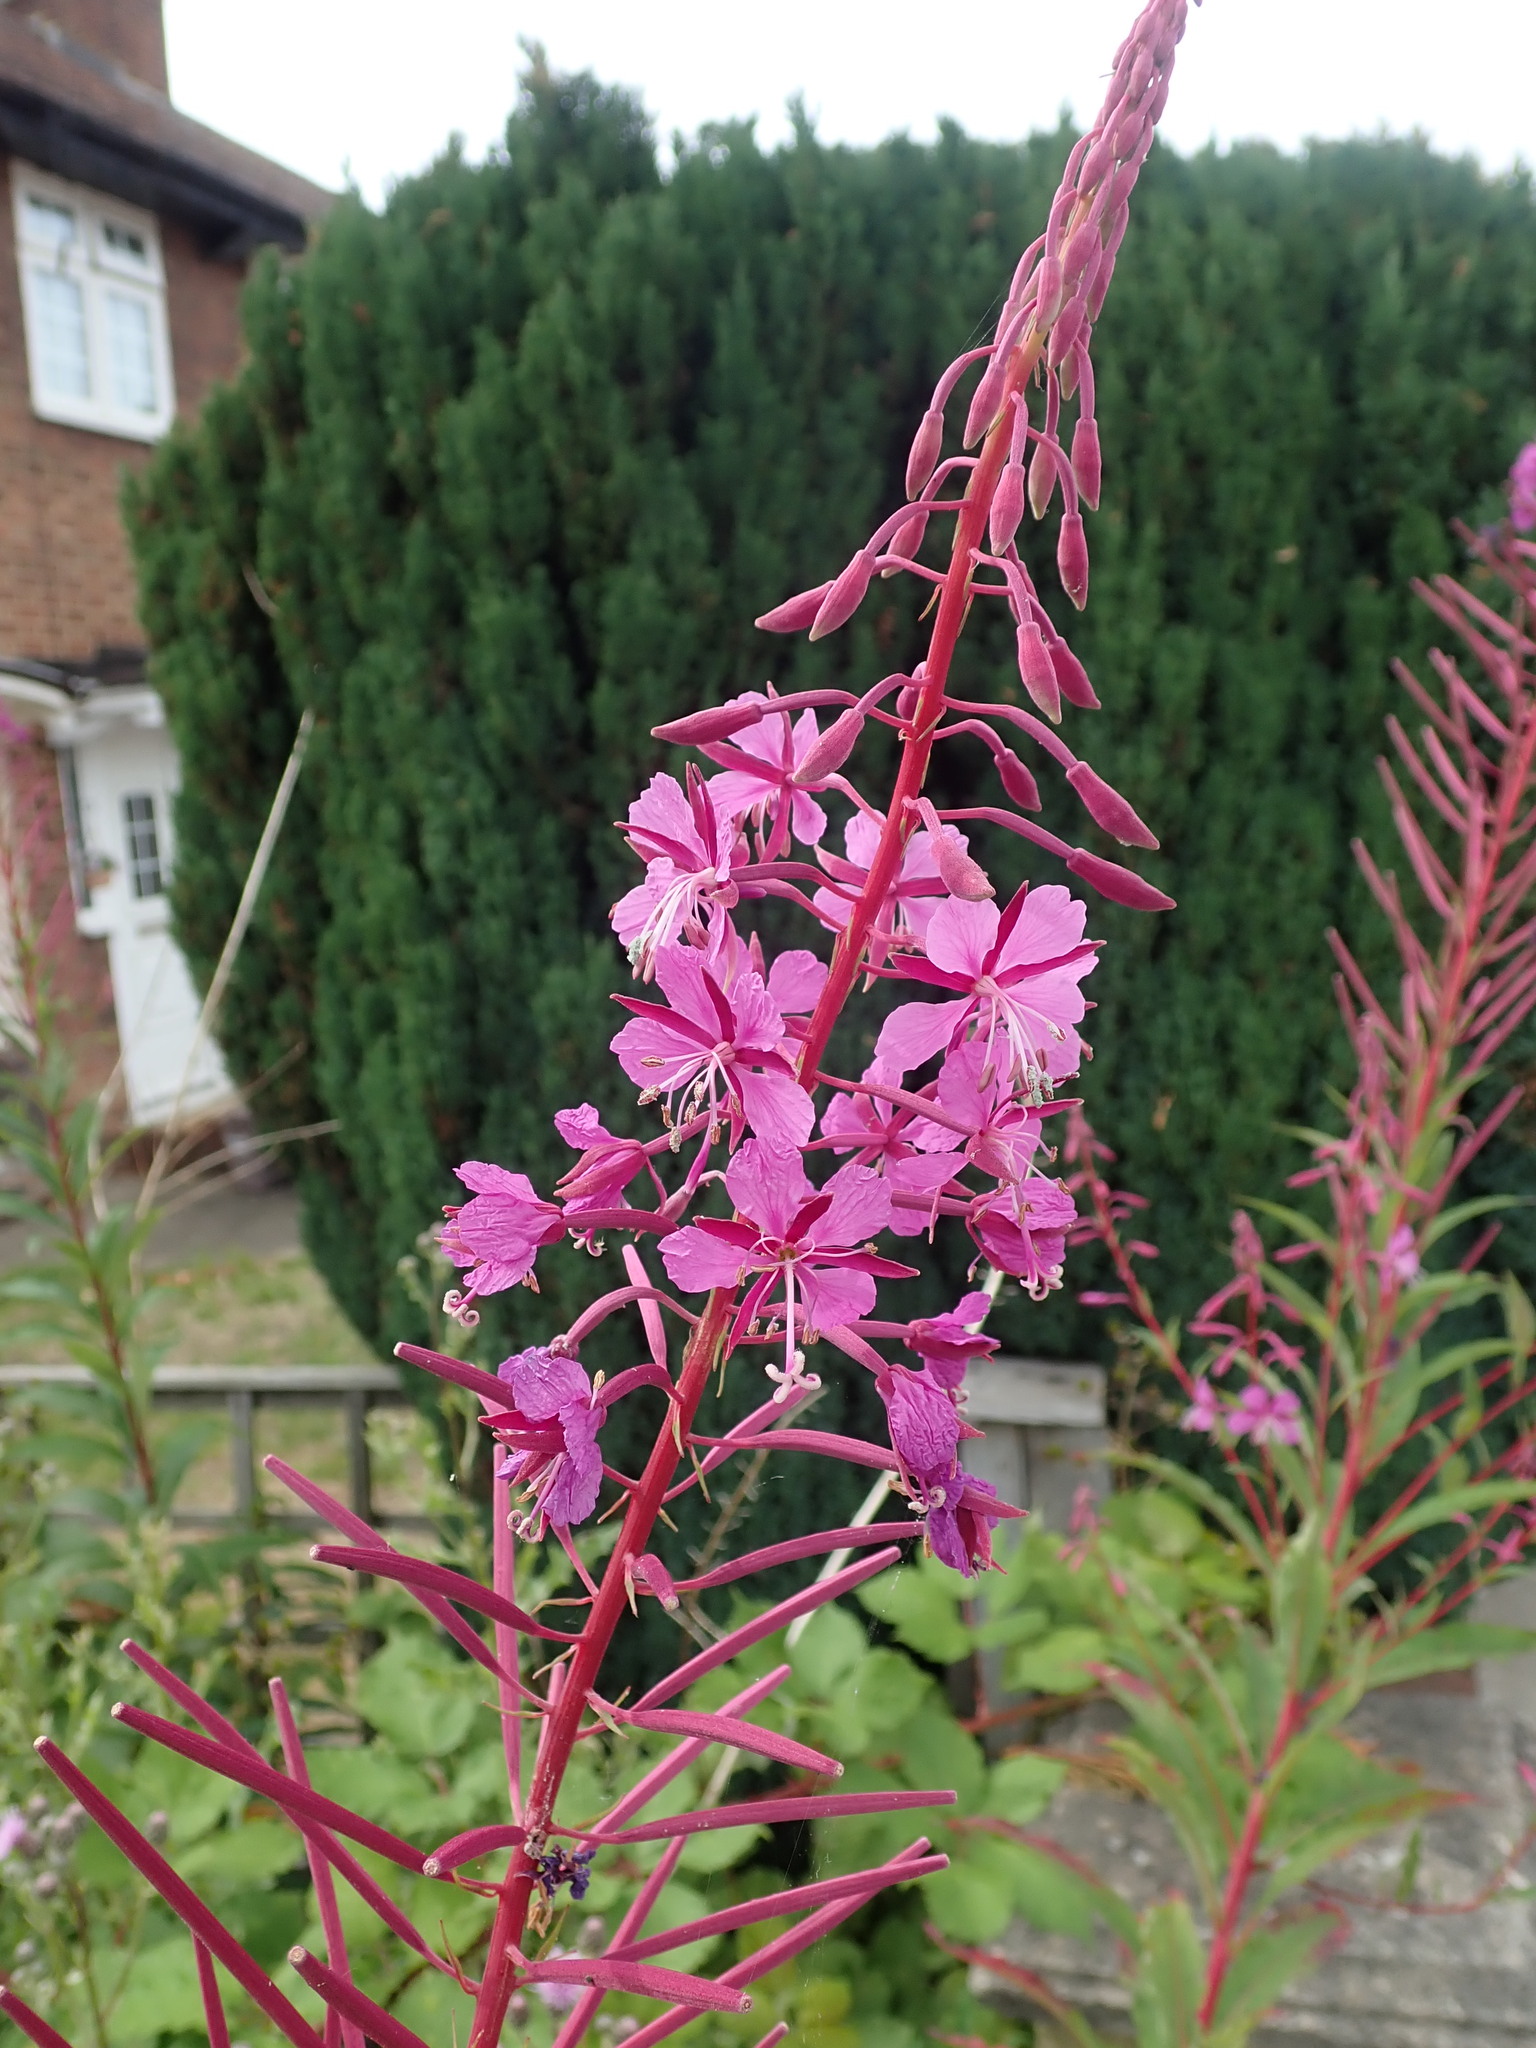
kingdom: Plantae
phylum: Tracheophyta
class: Magnoliopsida
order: Myrtales
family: Onagraceae
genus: Chamaenerion
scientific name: Chamaenerion angustifolium
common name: Fireweed
